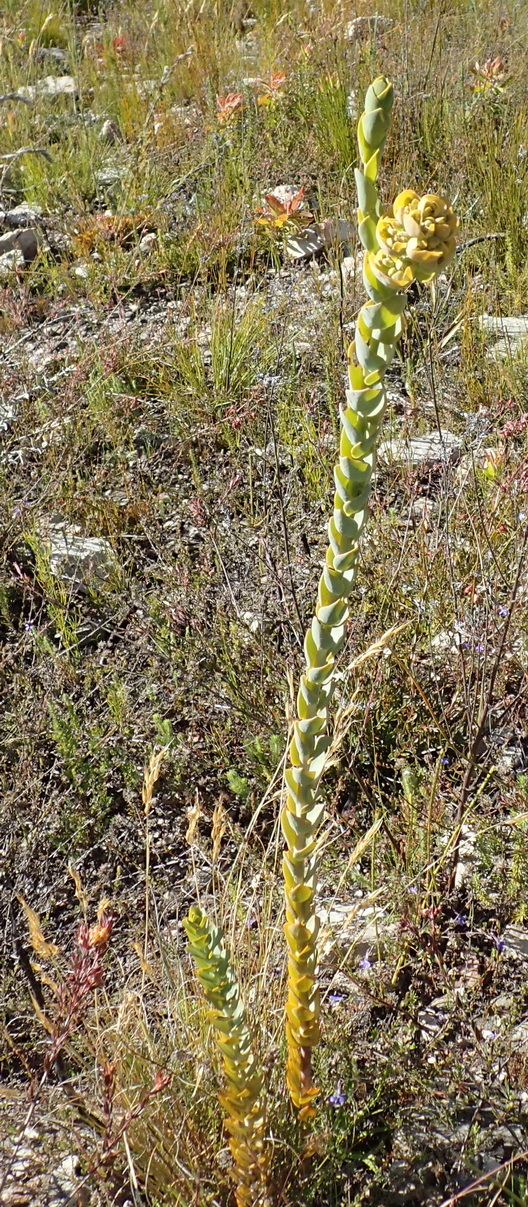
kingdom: Plantae
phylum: Tracheophyta
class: Magnoliopsida
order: Santalales
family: Thesiaceae
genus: Thesium
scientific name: Thesium euphorbioides
